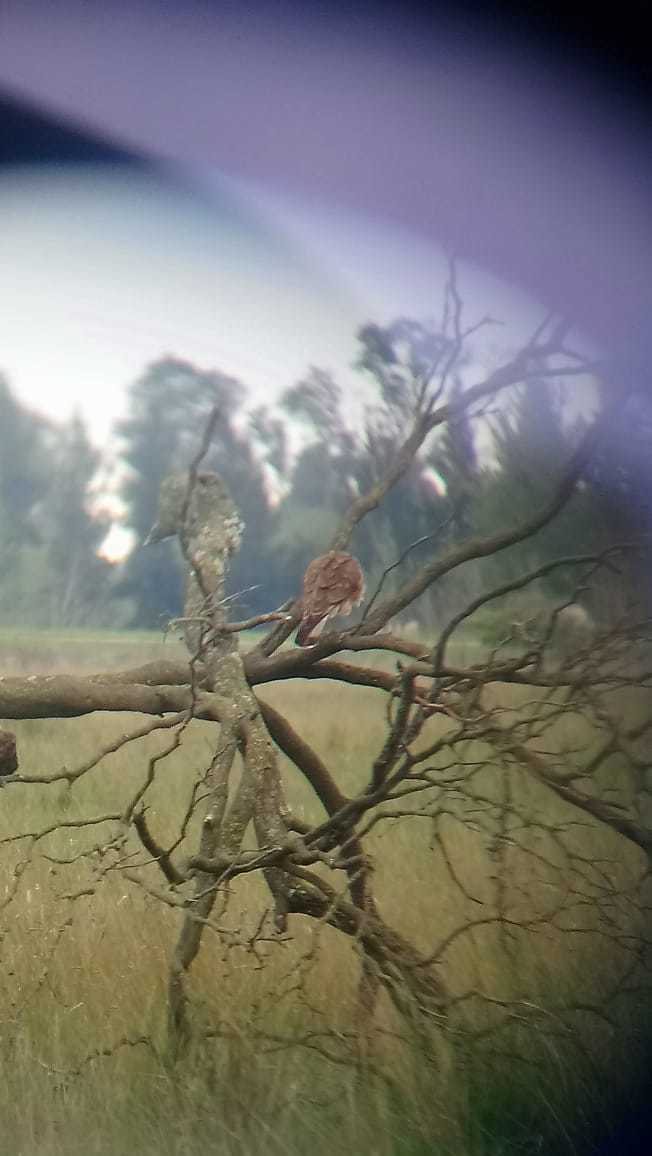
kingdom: Animalia
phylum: Chordata
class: Aves
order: Falconiformes
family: Falconidae
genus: Daptrius
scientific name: Daptrius
